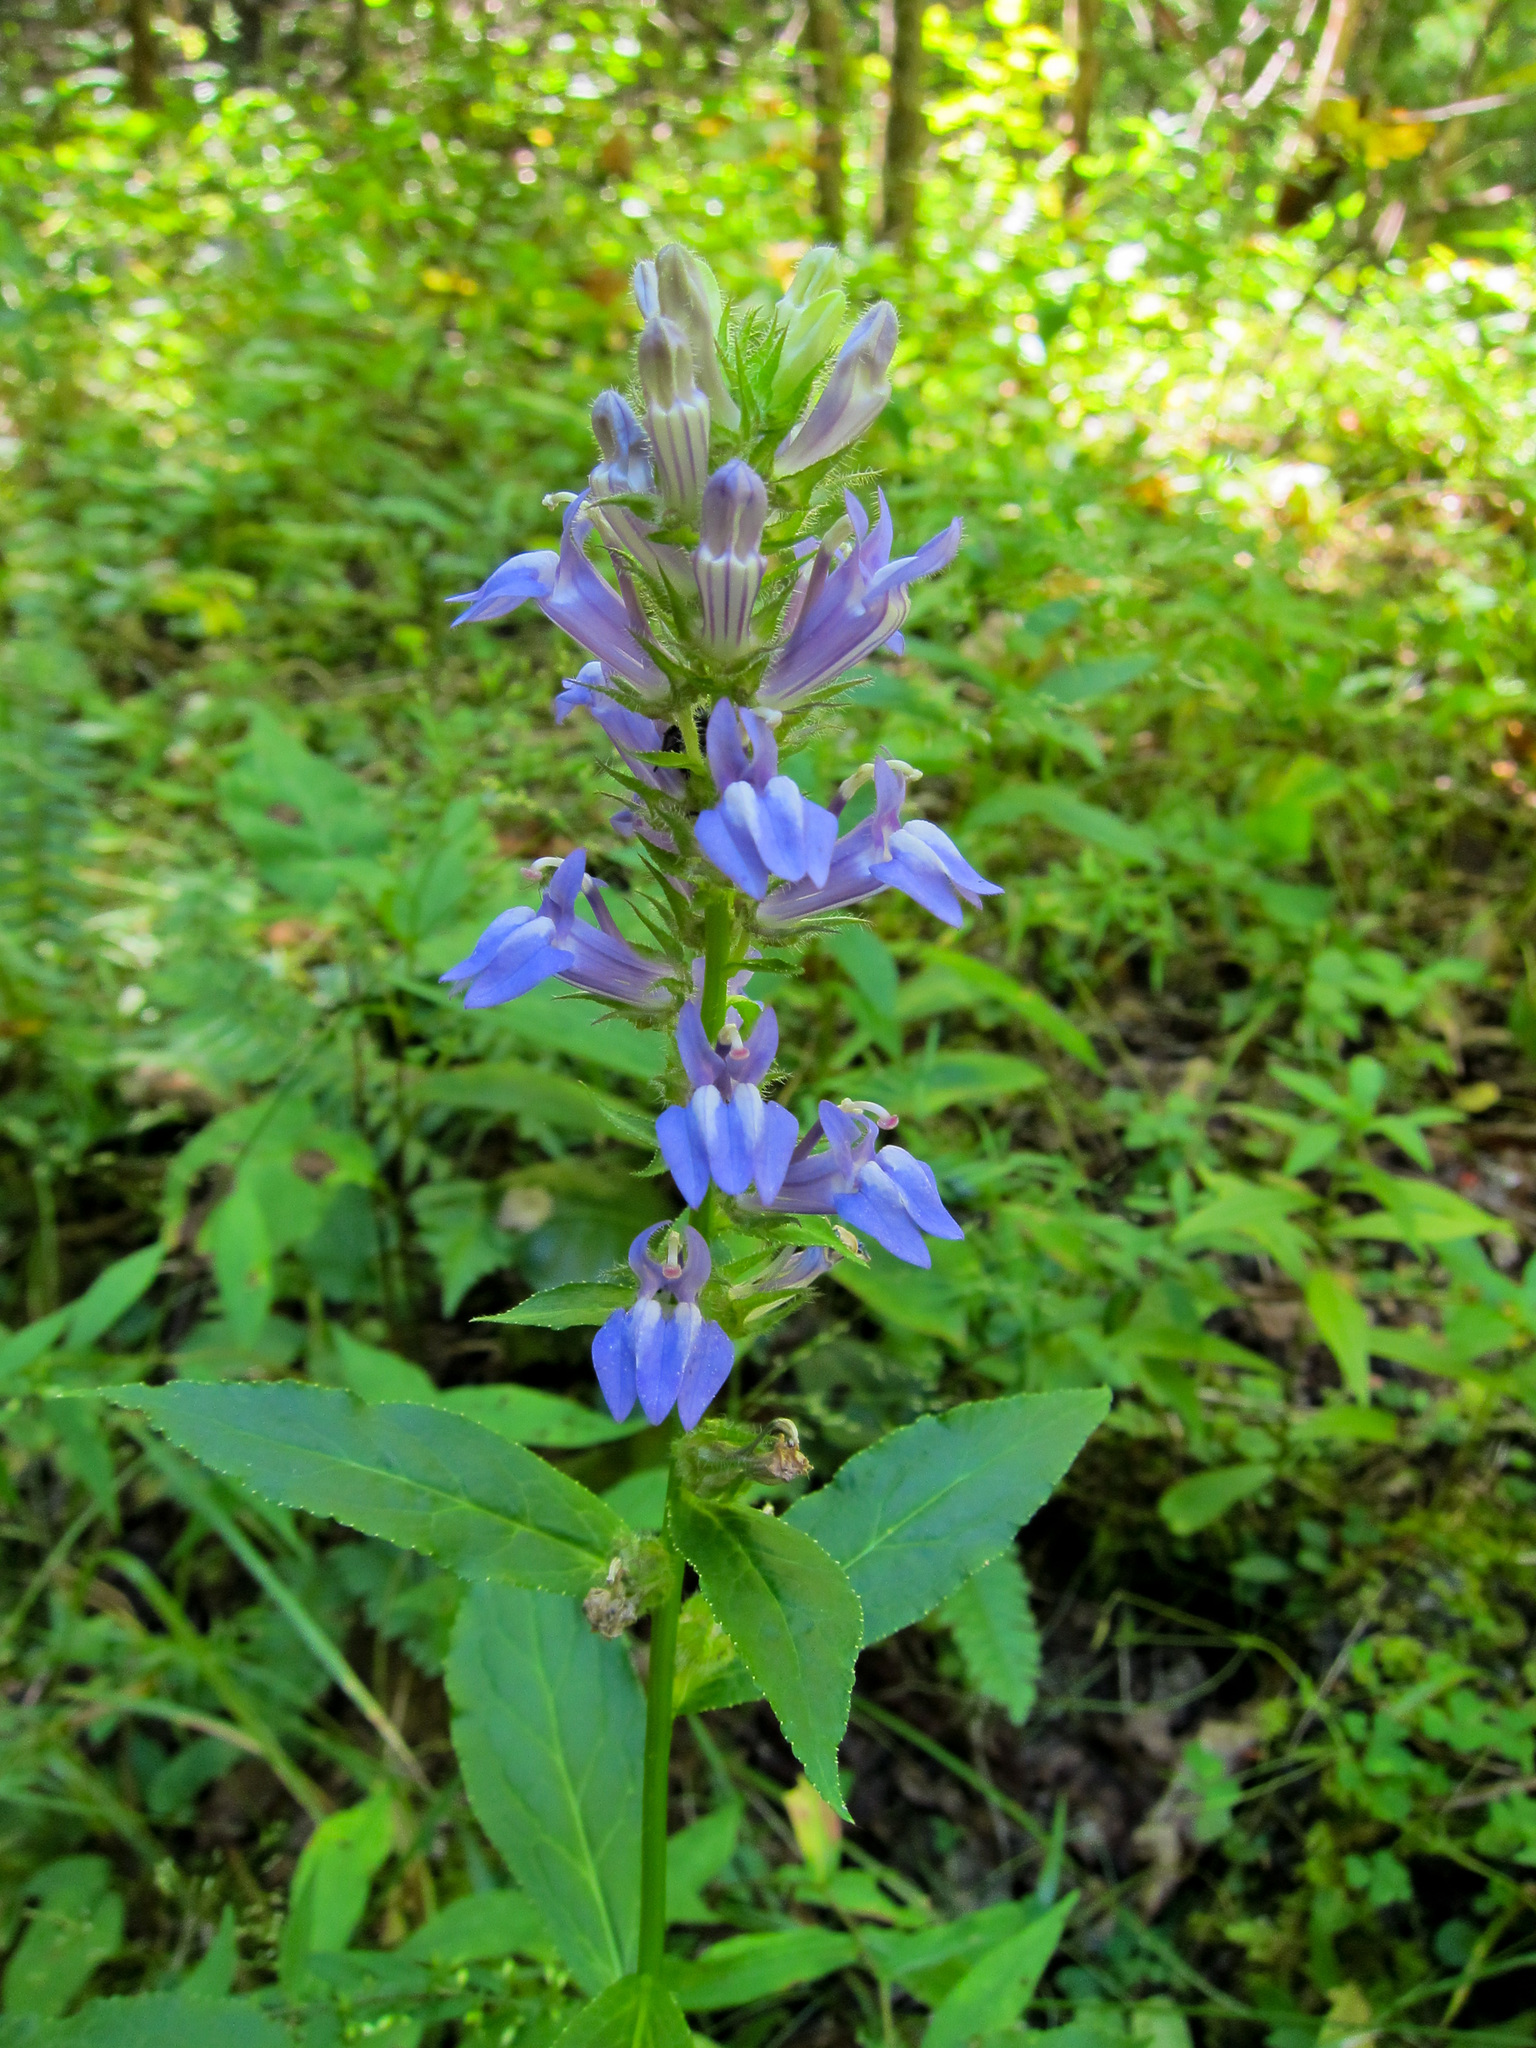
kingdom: Plantae
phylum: Tracheophyta
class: Magnoliopsida
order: Asterales
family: Campanulaceae
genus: Lobelia
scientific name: Lobelia siphilitica
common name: Great lobelia
